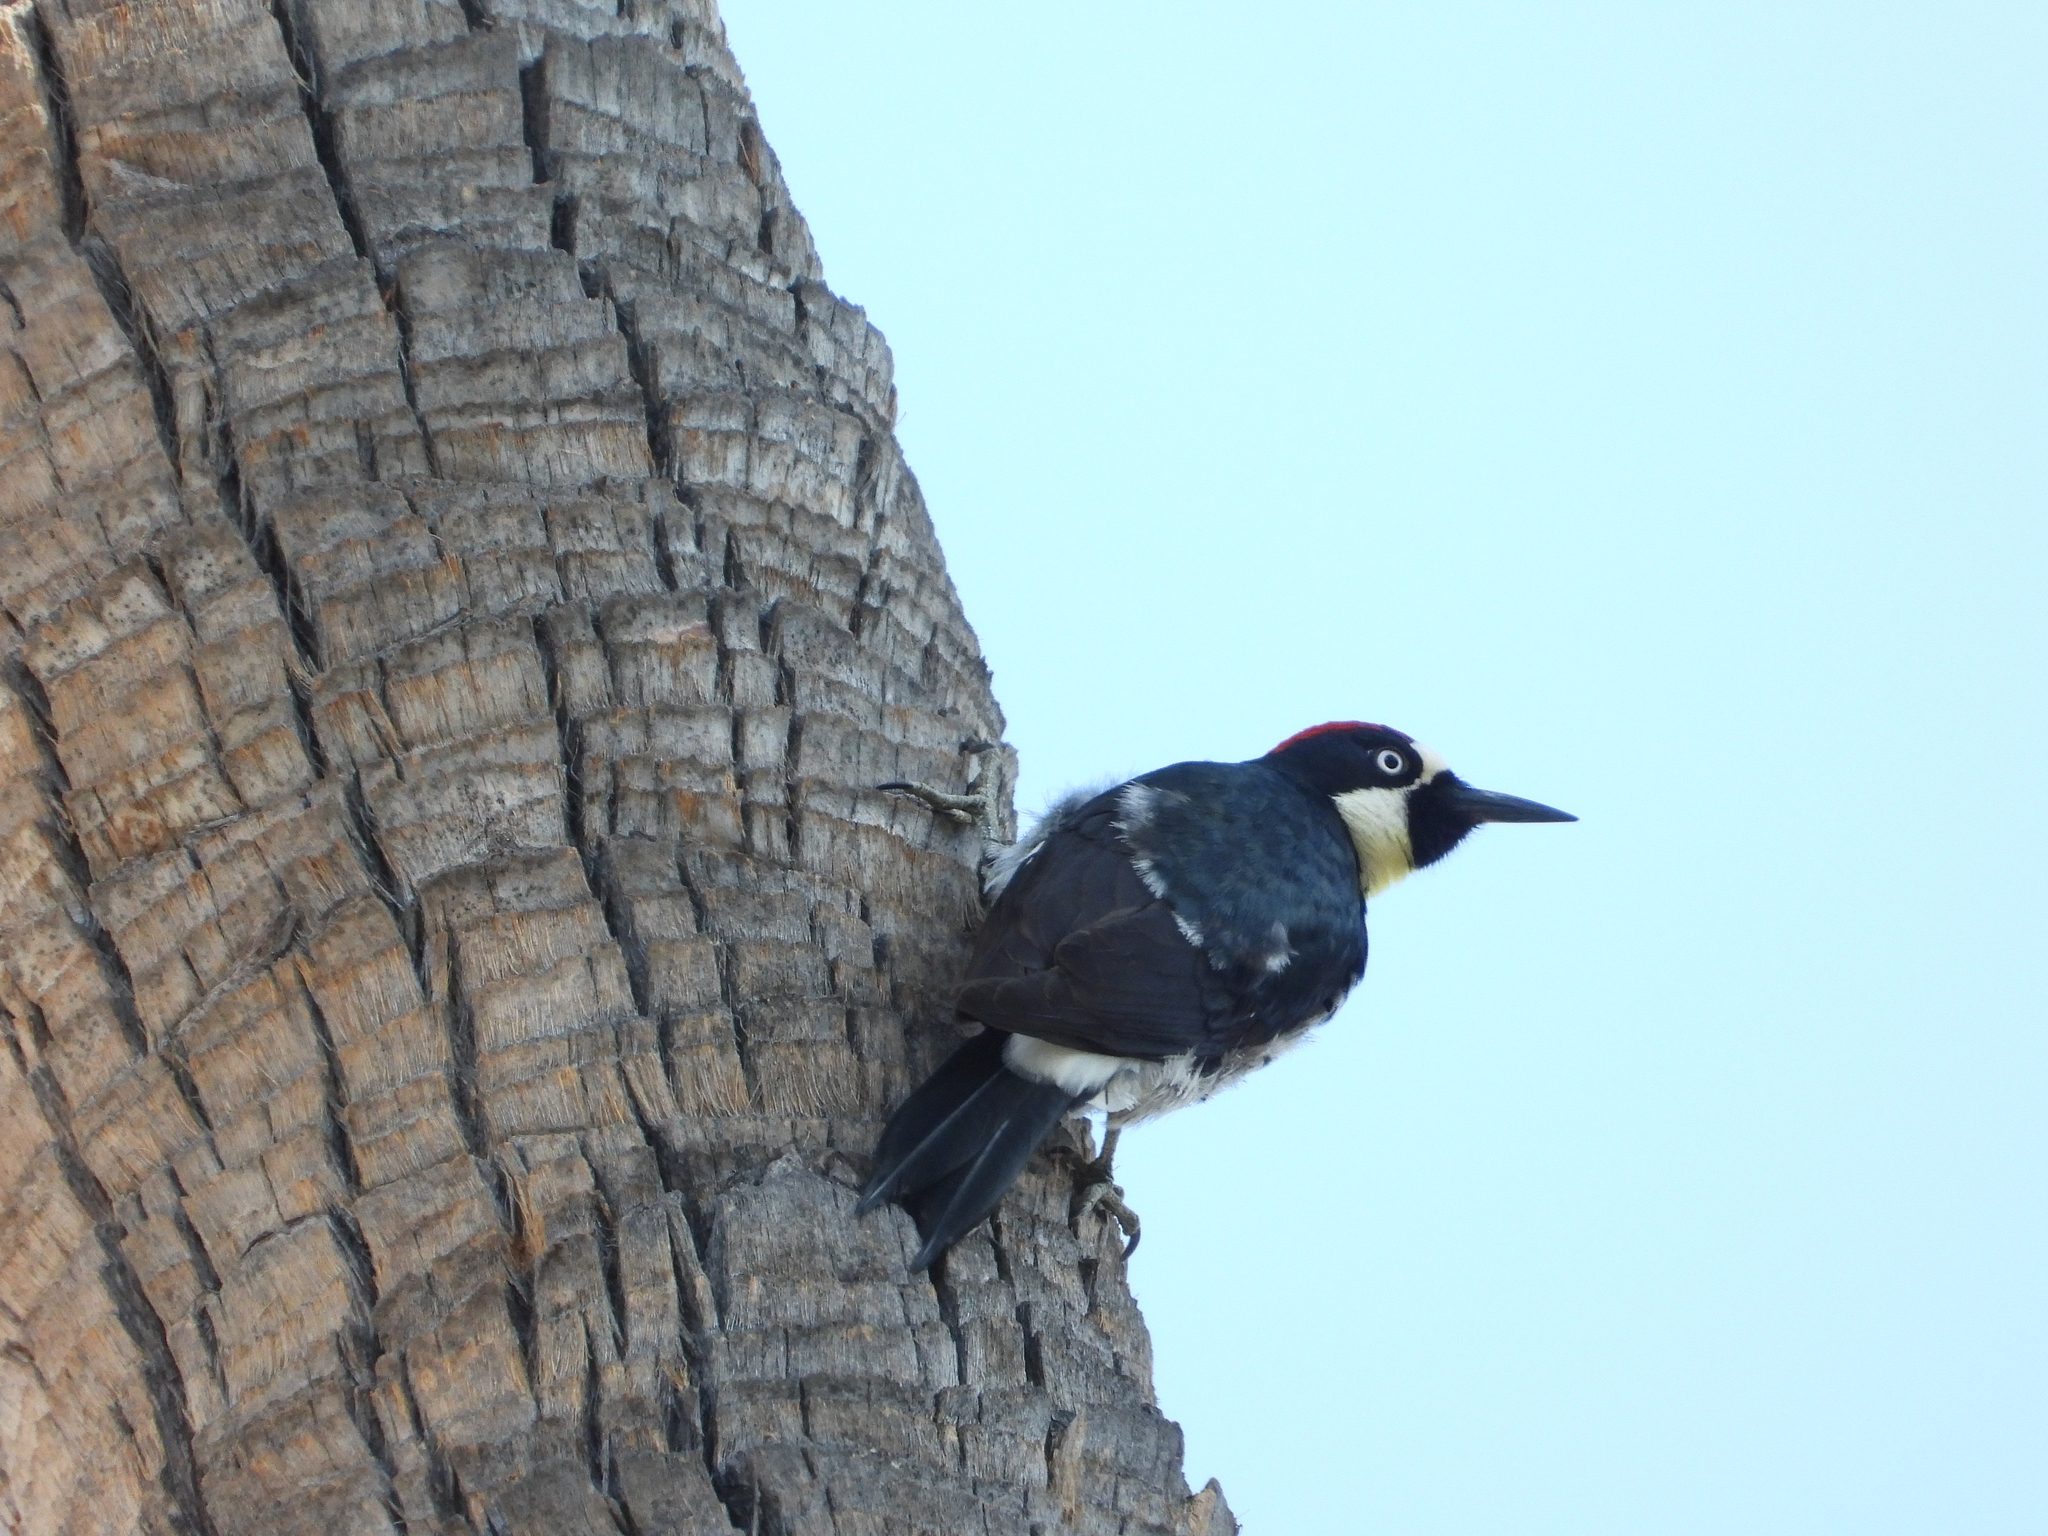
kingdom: Animalia
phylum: Chordata
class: Aves
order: Piciformes
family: Picidae
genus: Melanerpes
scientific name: Melanerpes formicivorus
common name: Acorn woodpecker
